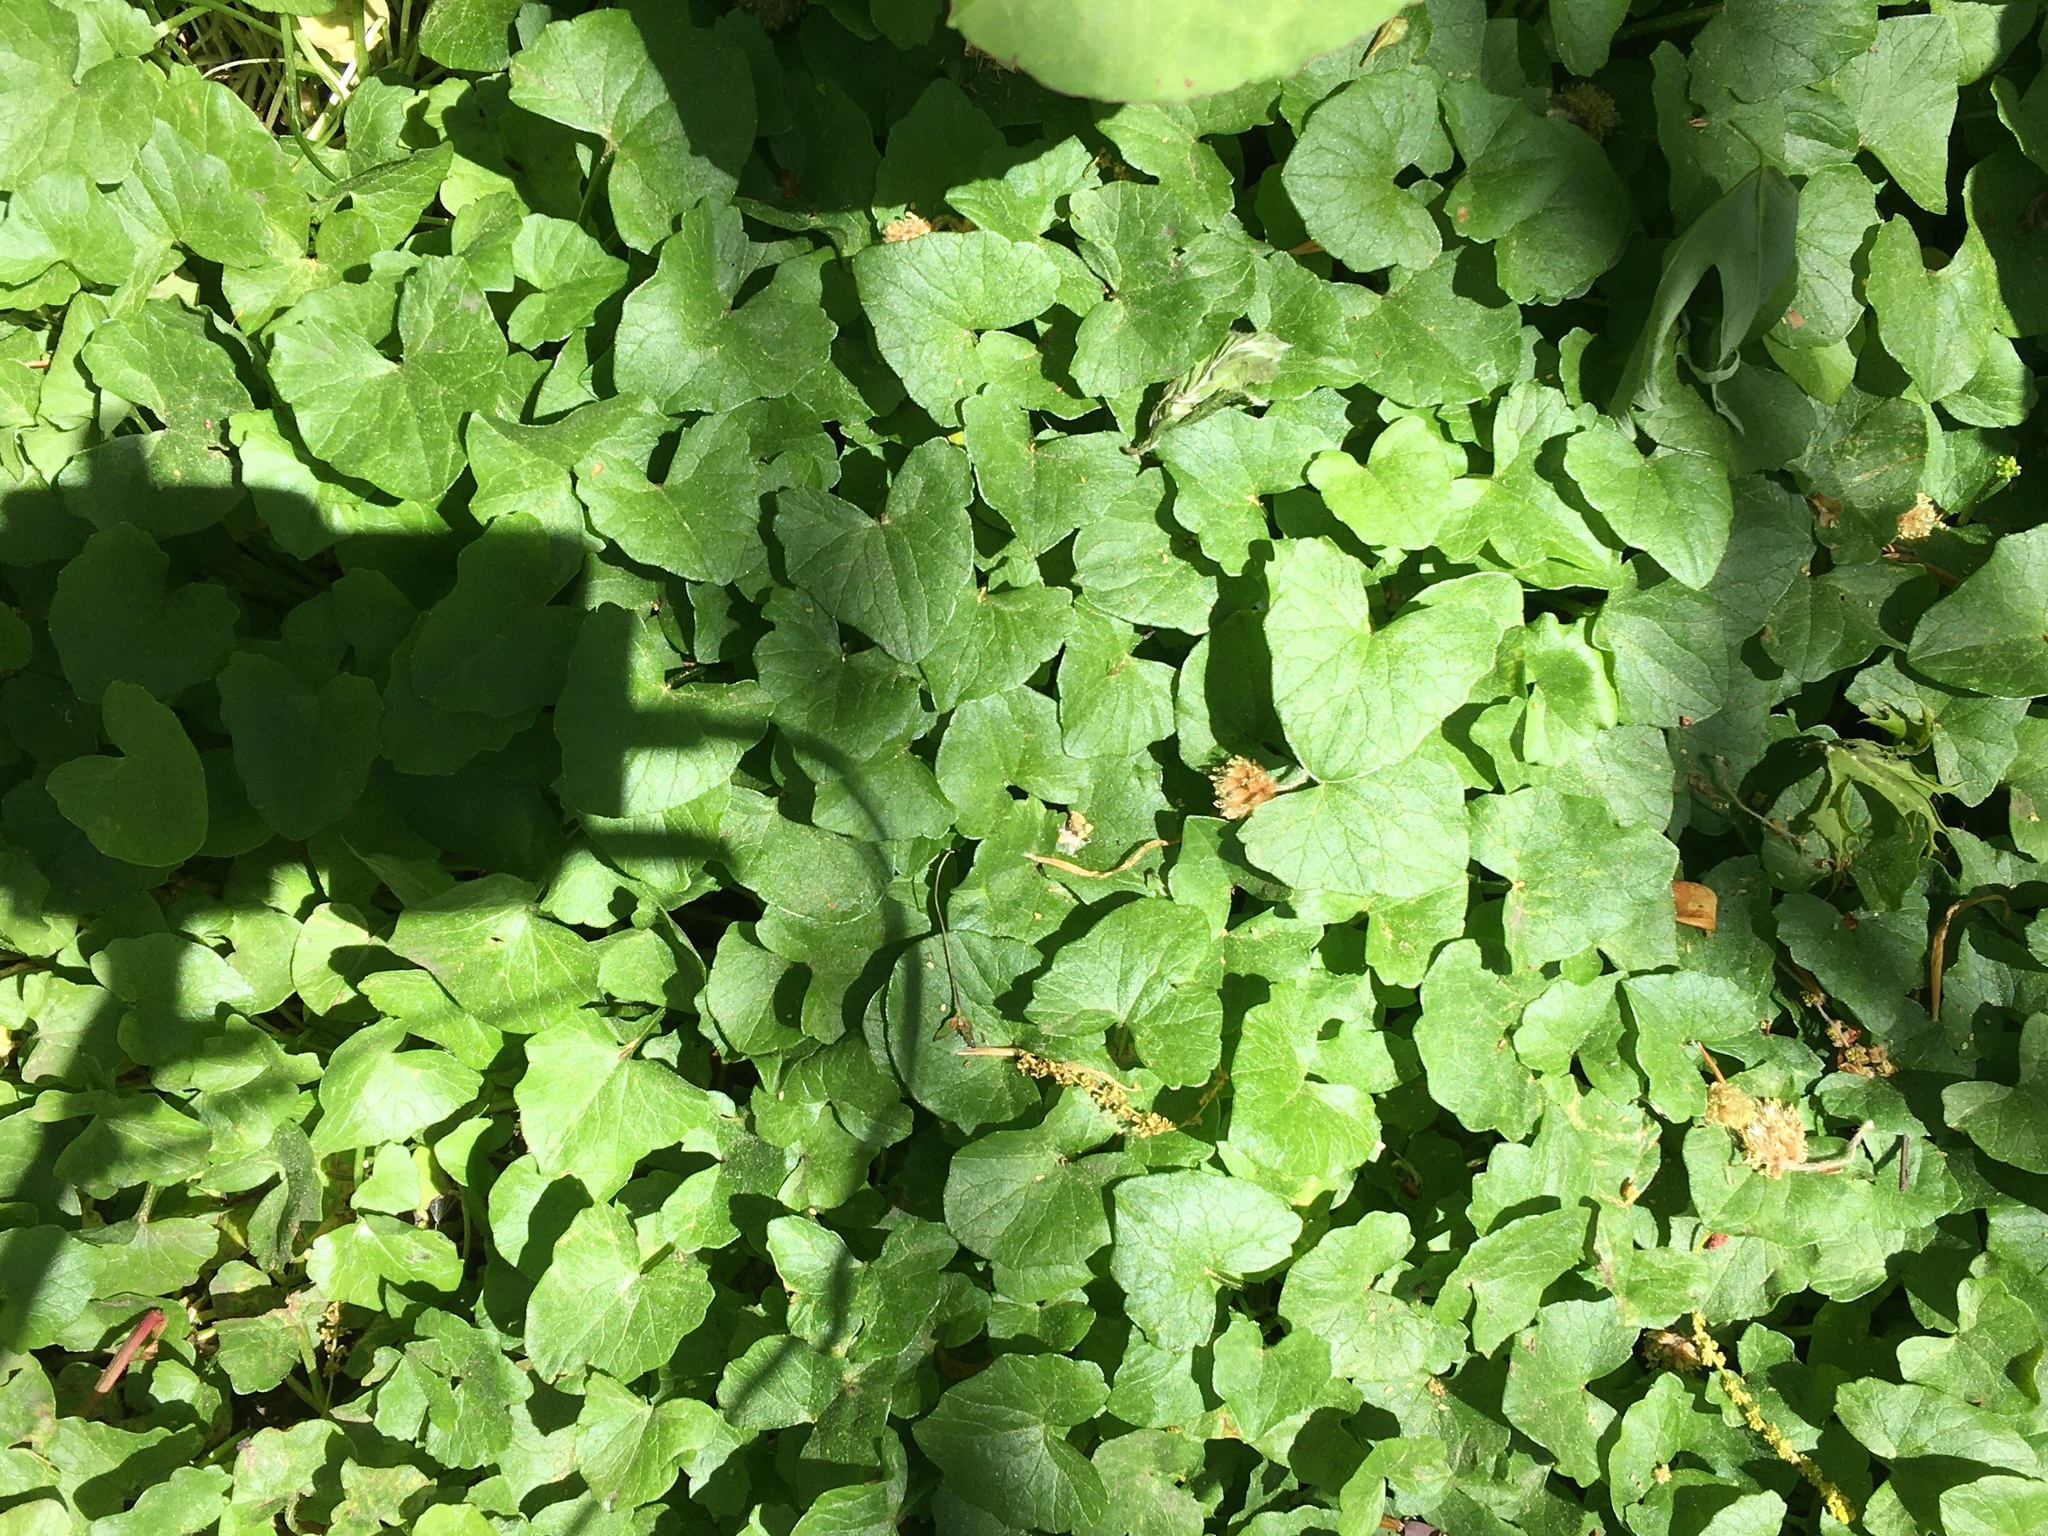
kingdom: Plantae
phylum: Tracheophyta
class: Magnoliopsida
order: Ranunculales
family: Ranunculaceae
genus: Ficaria
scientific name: Ficaria verna
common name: Lesser celandine
